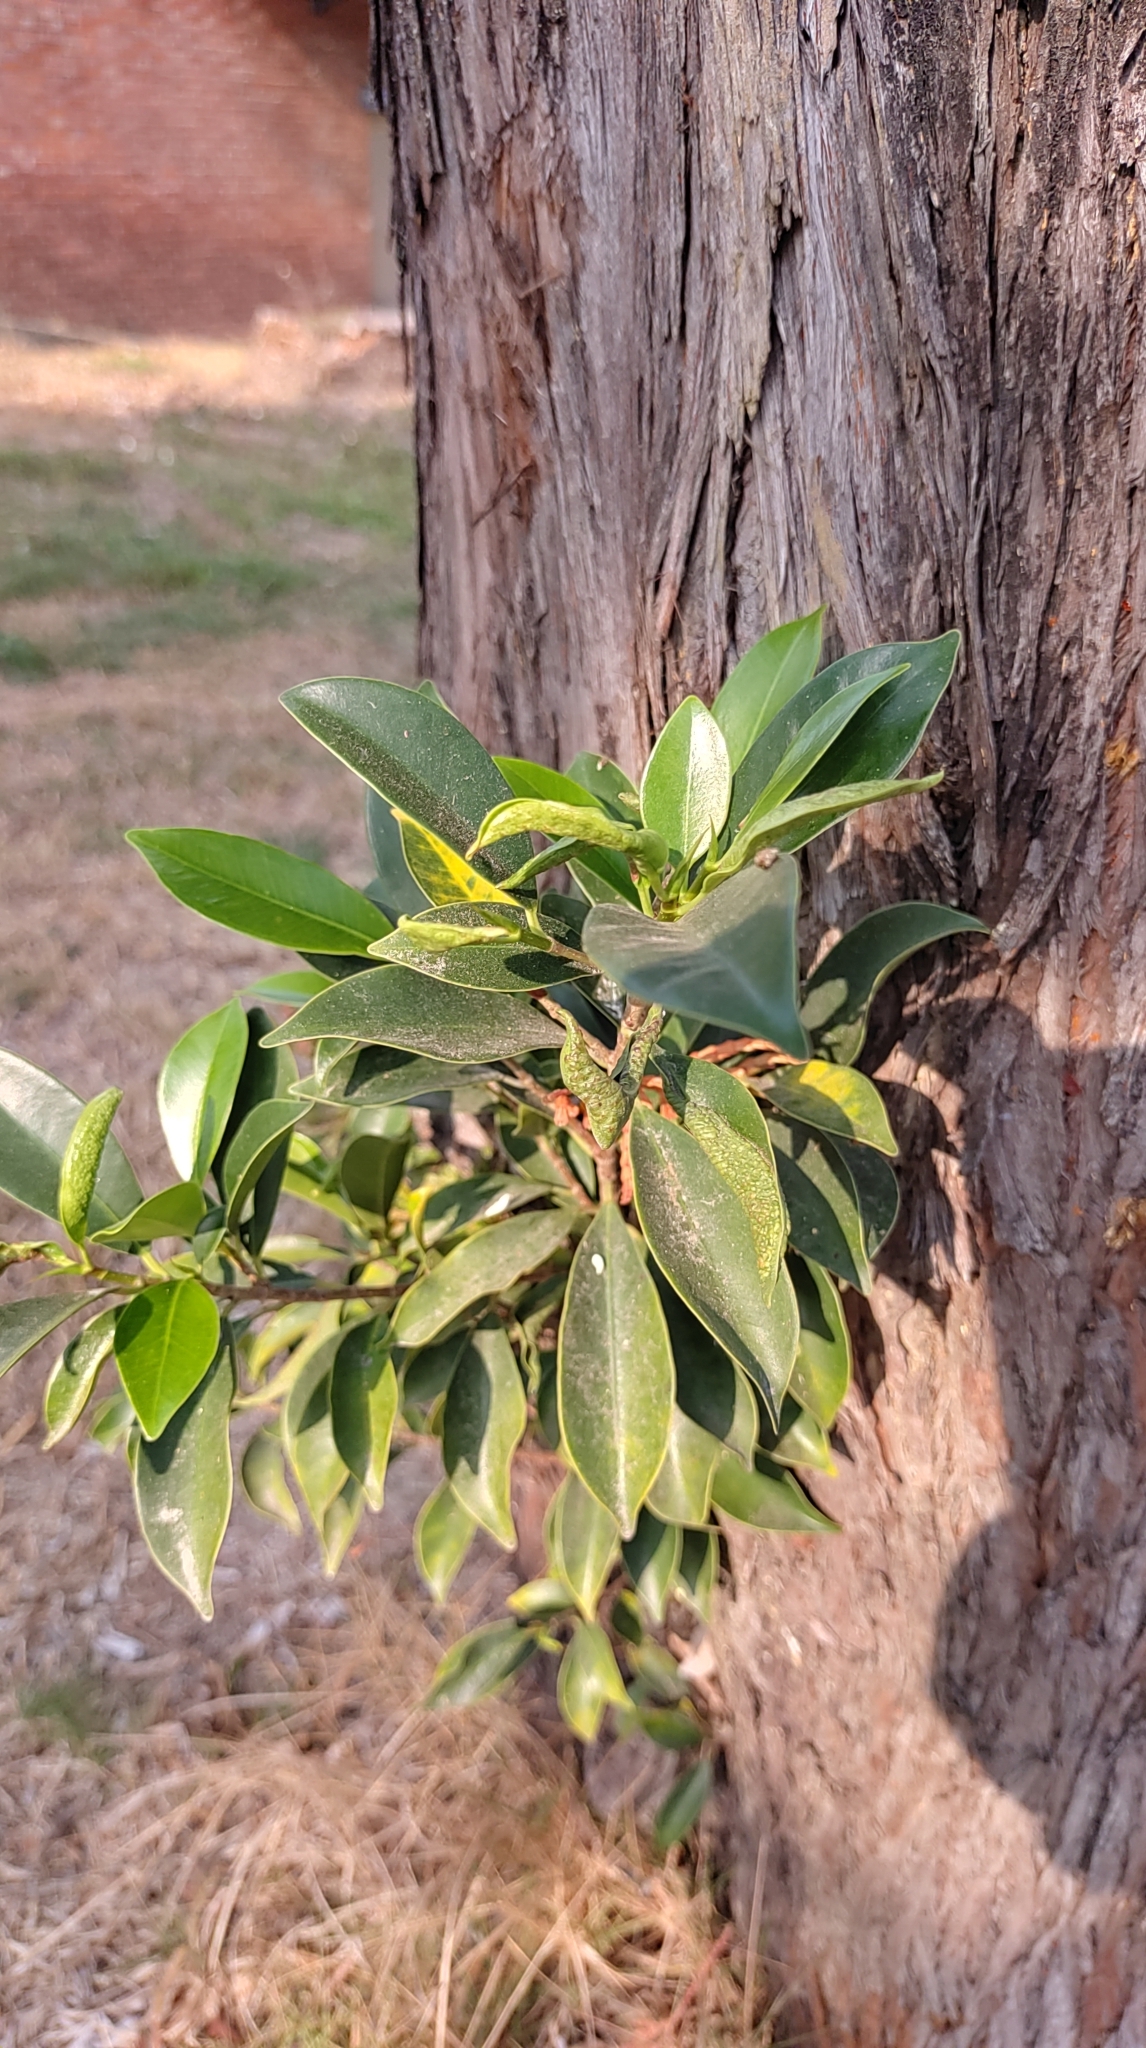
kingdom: Plantae
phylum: Tracheophyta
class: Magnoliopsida
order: Rosales
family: Moraceae
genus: Ficus
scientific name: Ficus microcarpa
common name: Chinese banyan
